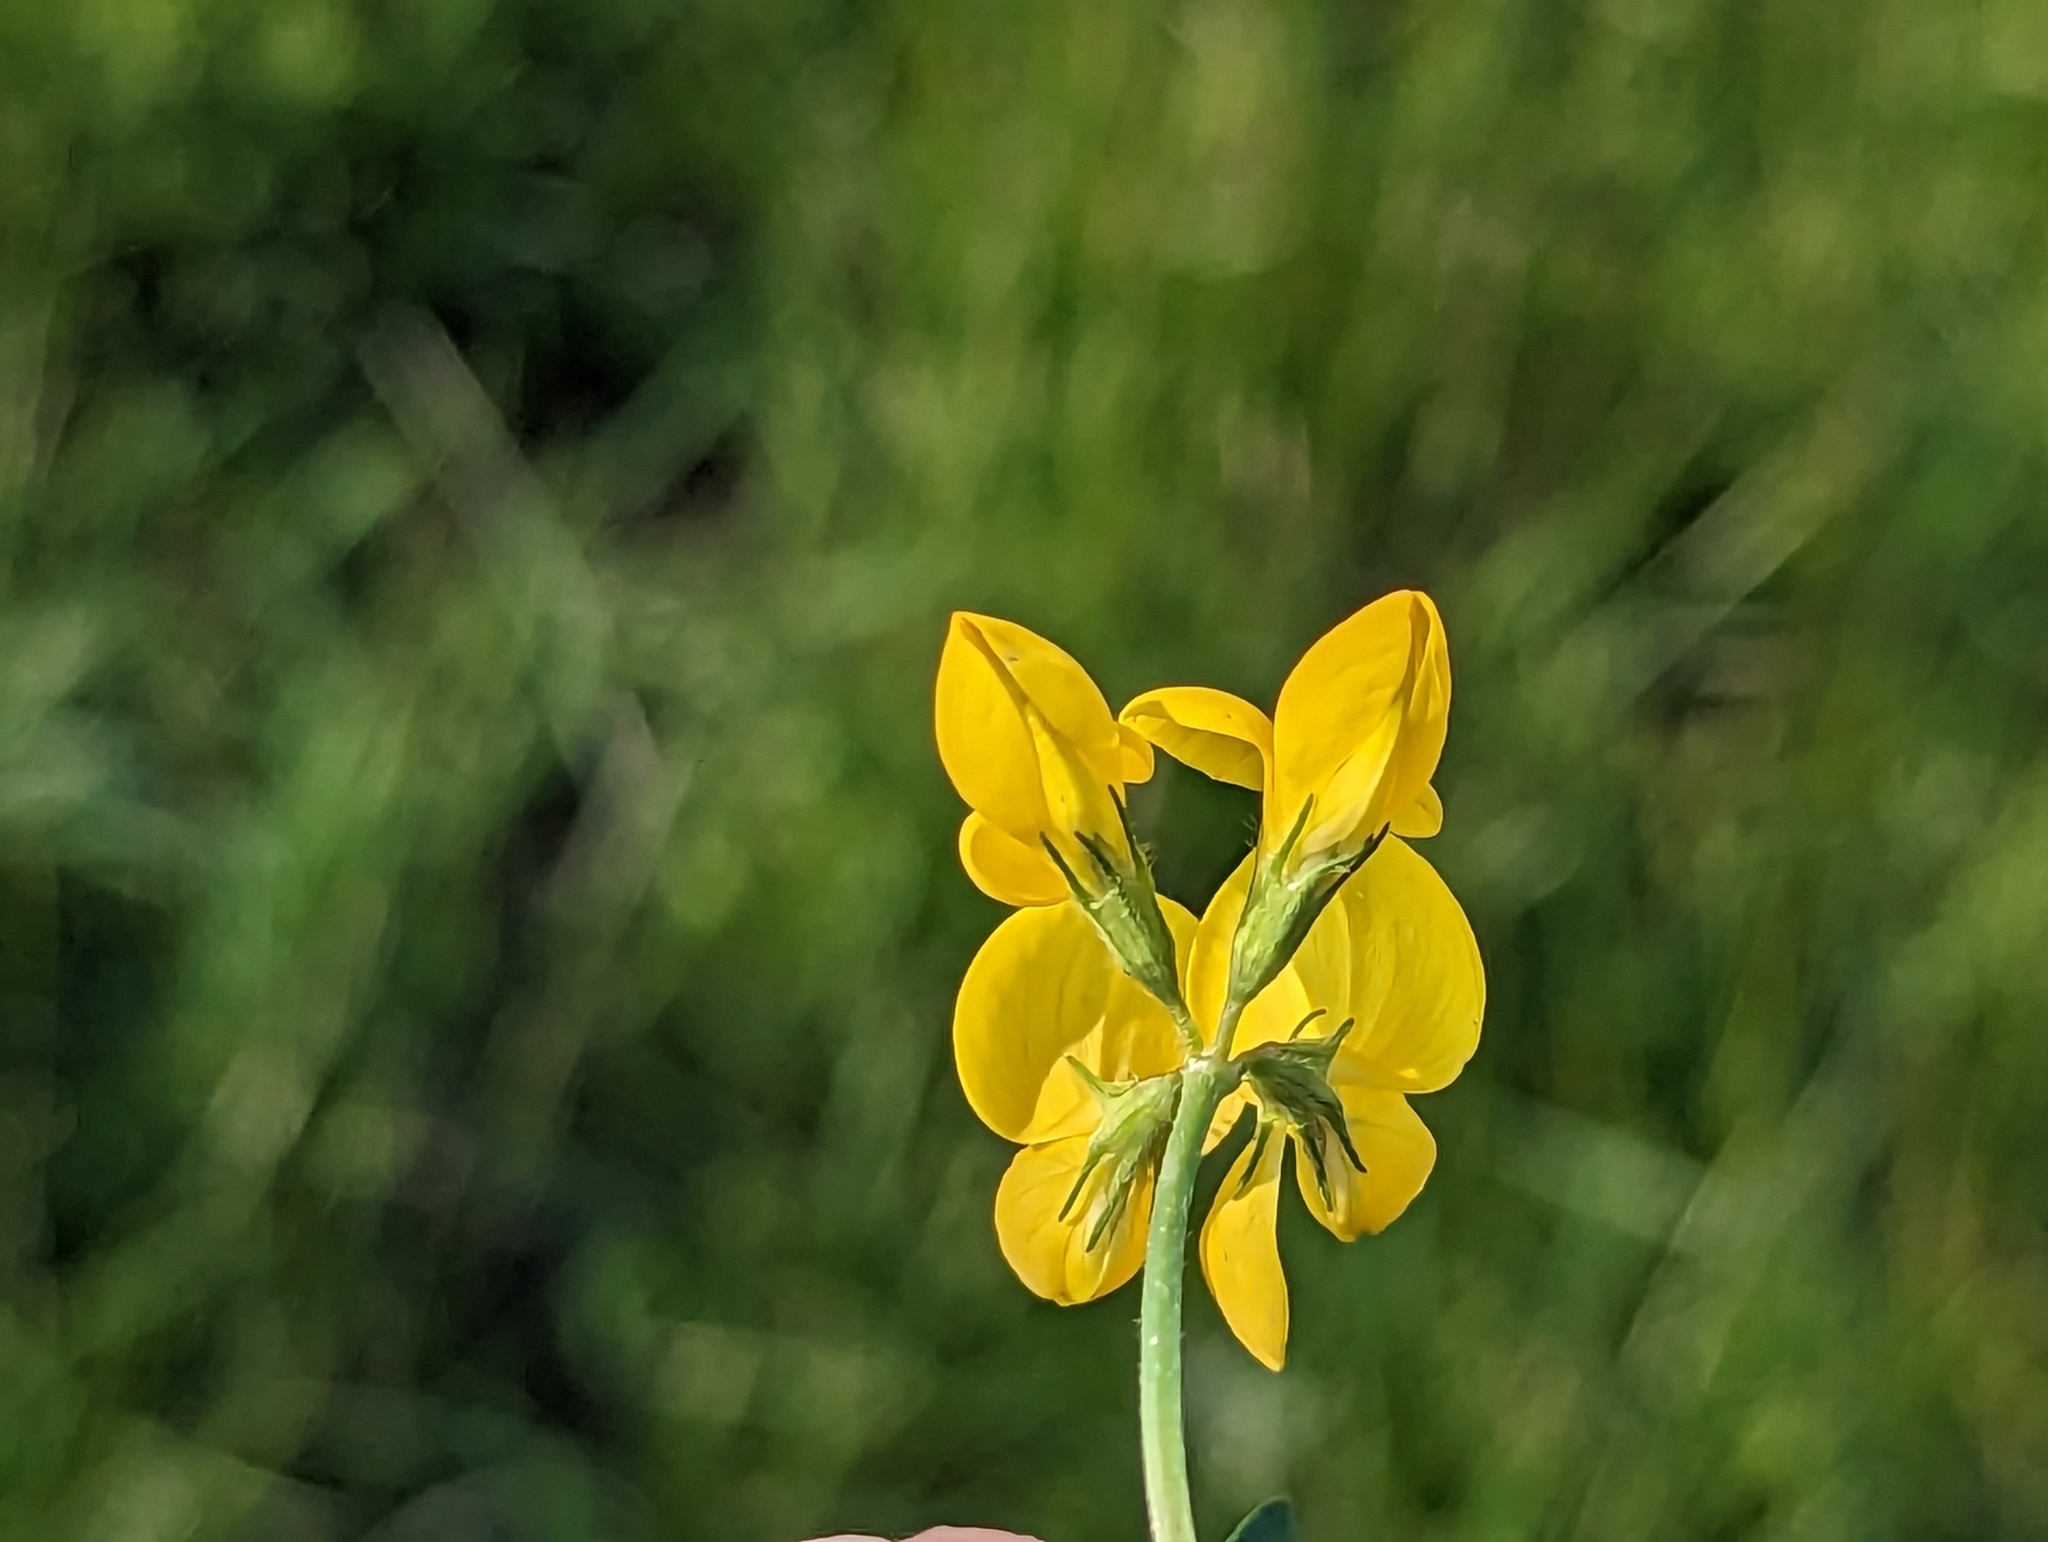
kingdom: Plantae
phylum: Tracheophyta
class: Magnoliopsida
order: Fabales
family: Fabaceae
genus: Lotus
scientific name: Lotus corniculatus
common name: Common bird's-foot-trefoil
